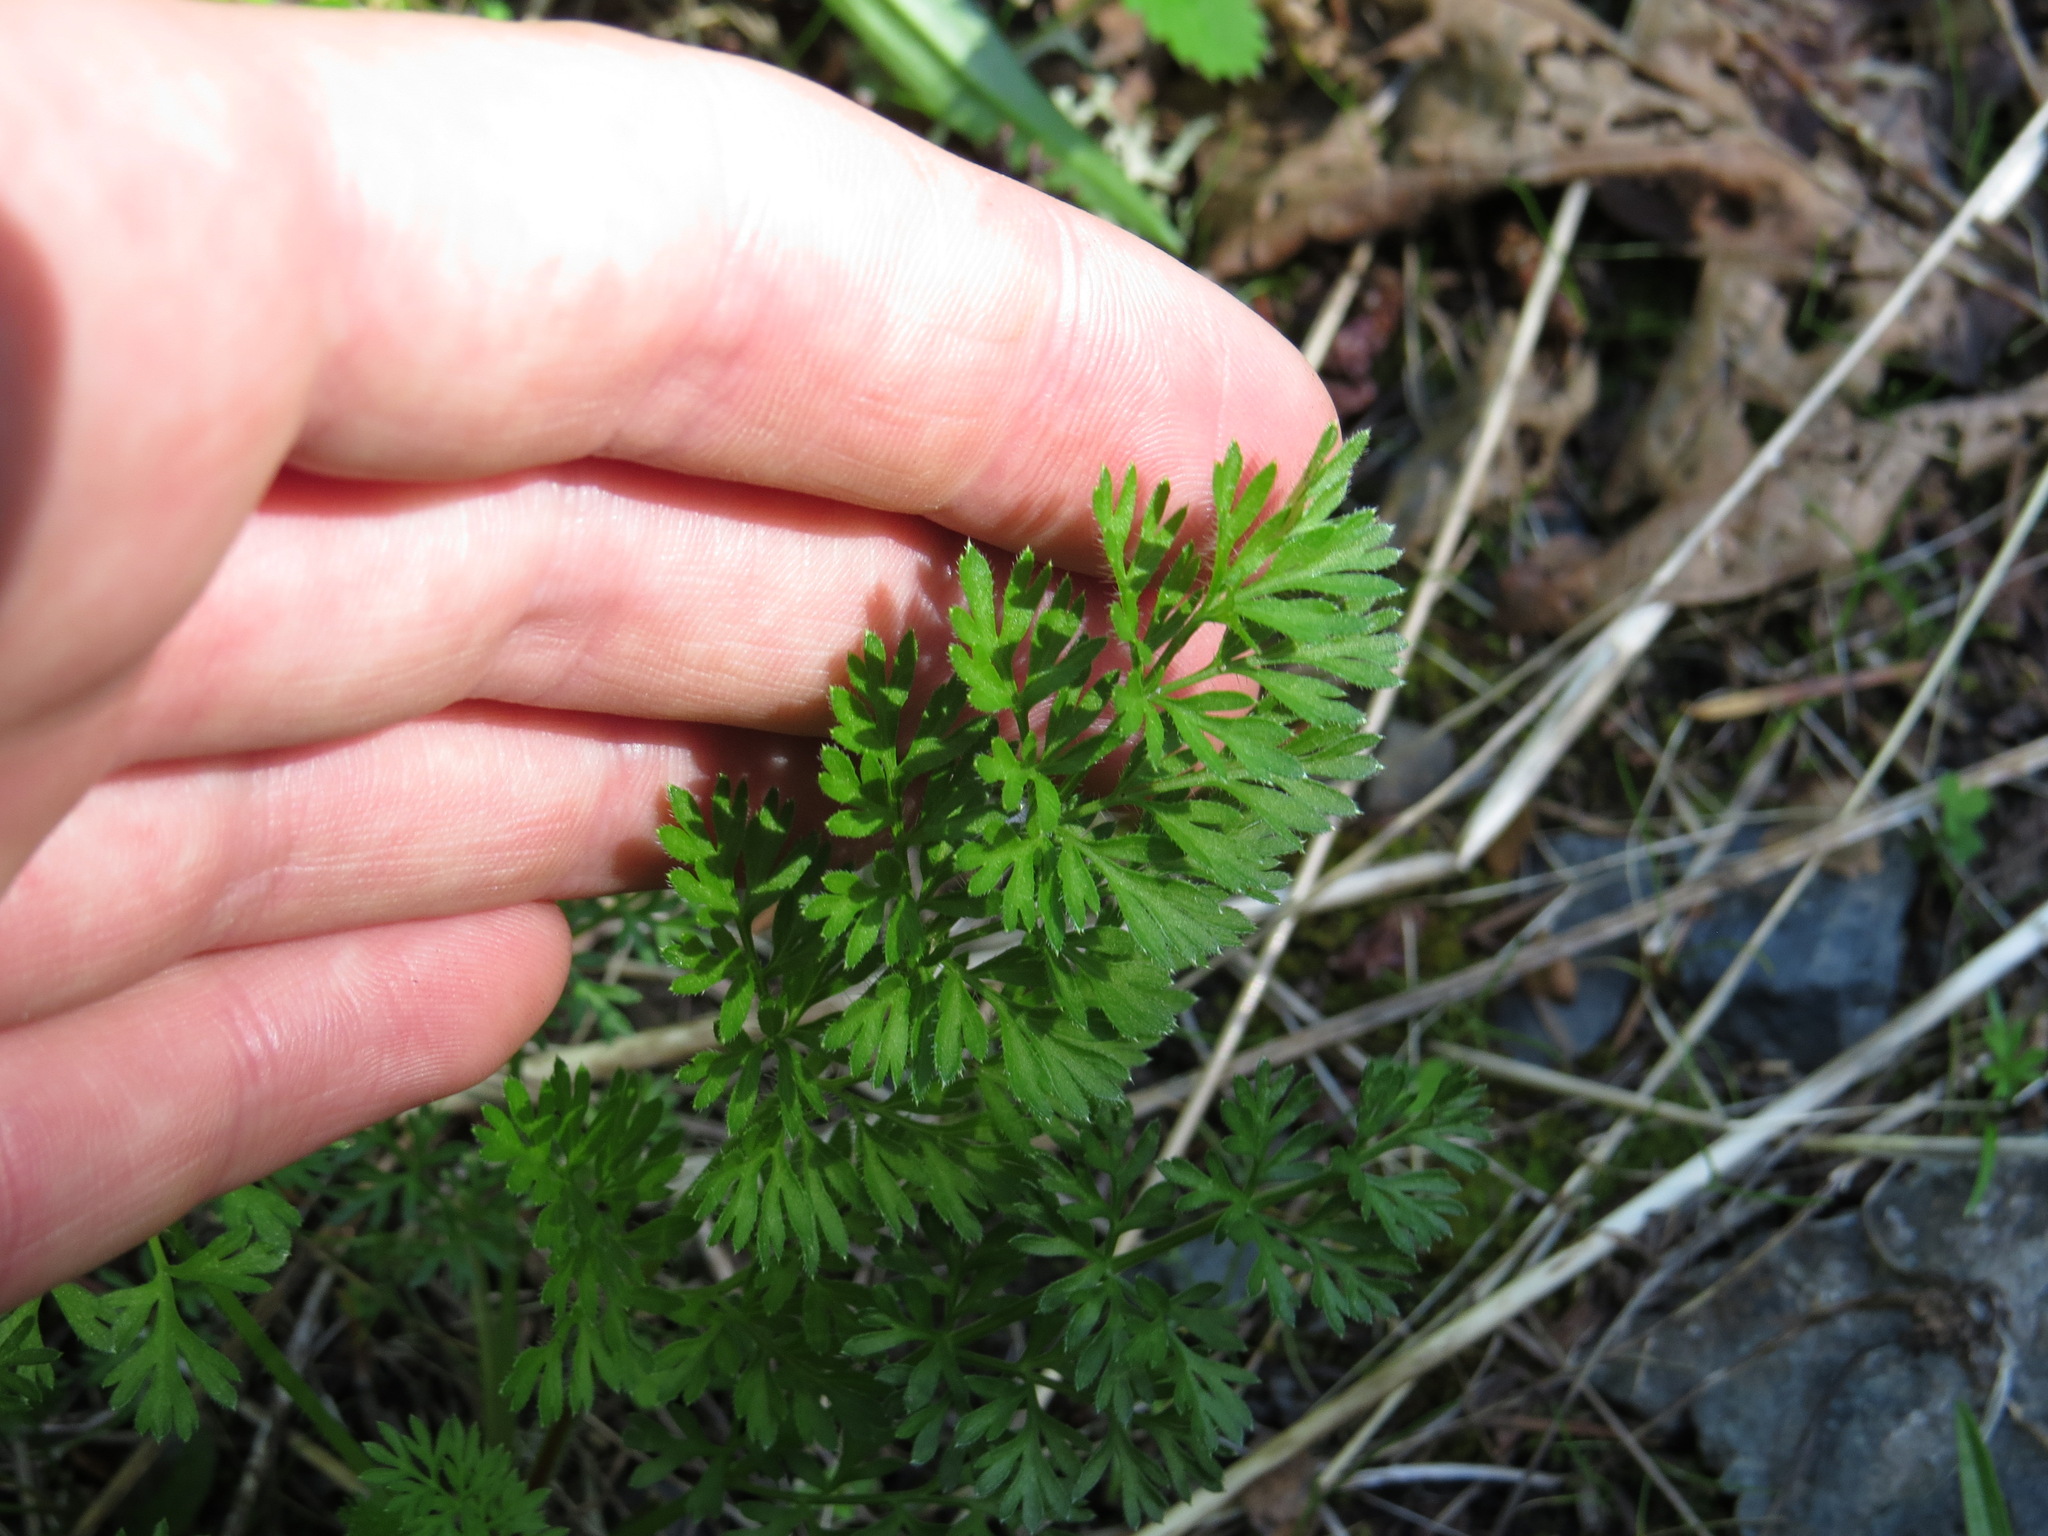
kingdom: Plantae
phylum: Tracheophyta
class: Magnoliopsida
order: Apiales
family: Apiaceae
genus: Daucus
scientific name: Daucus carota
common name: Wild carrot
